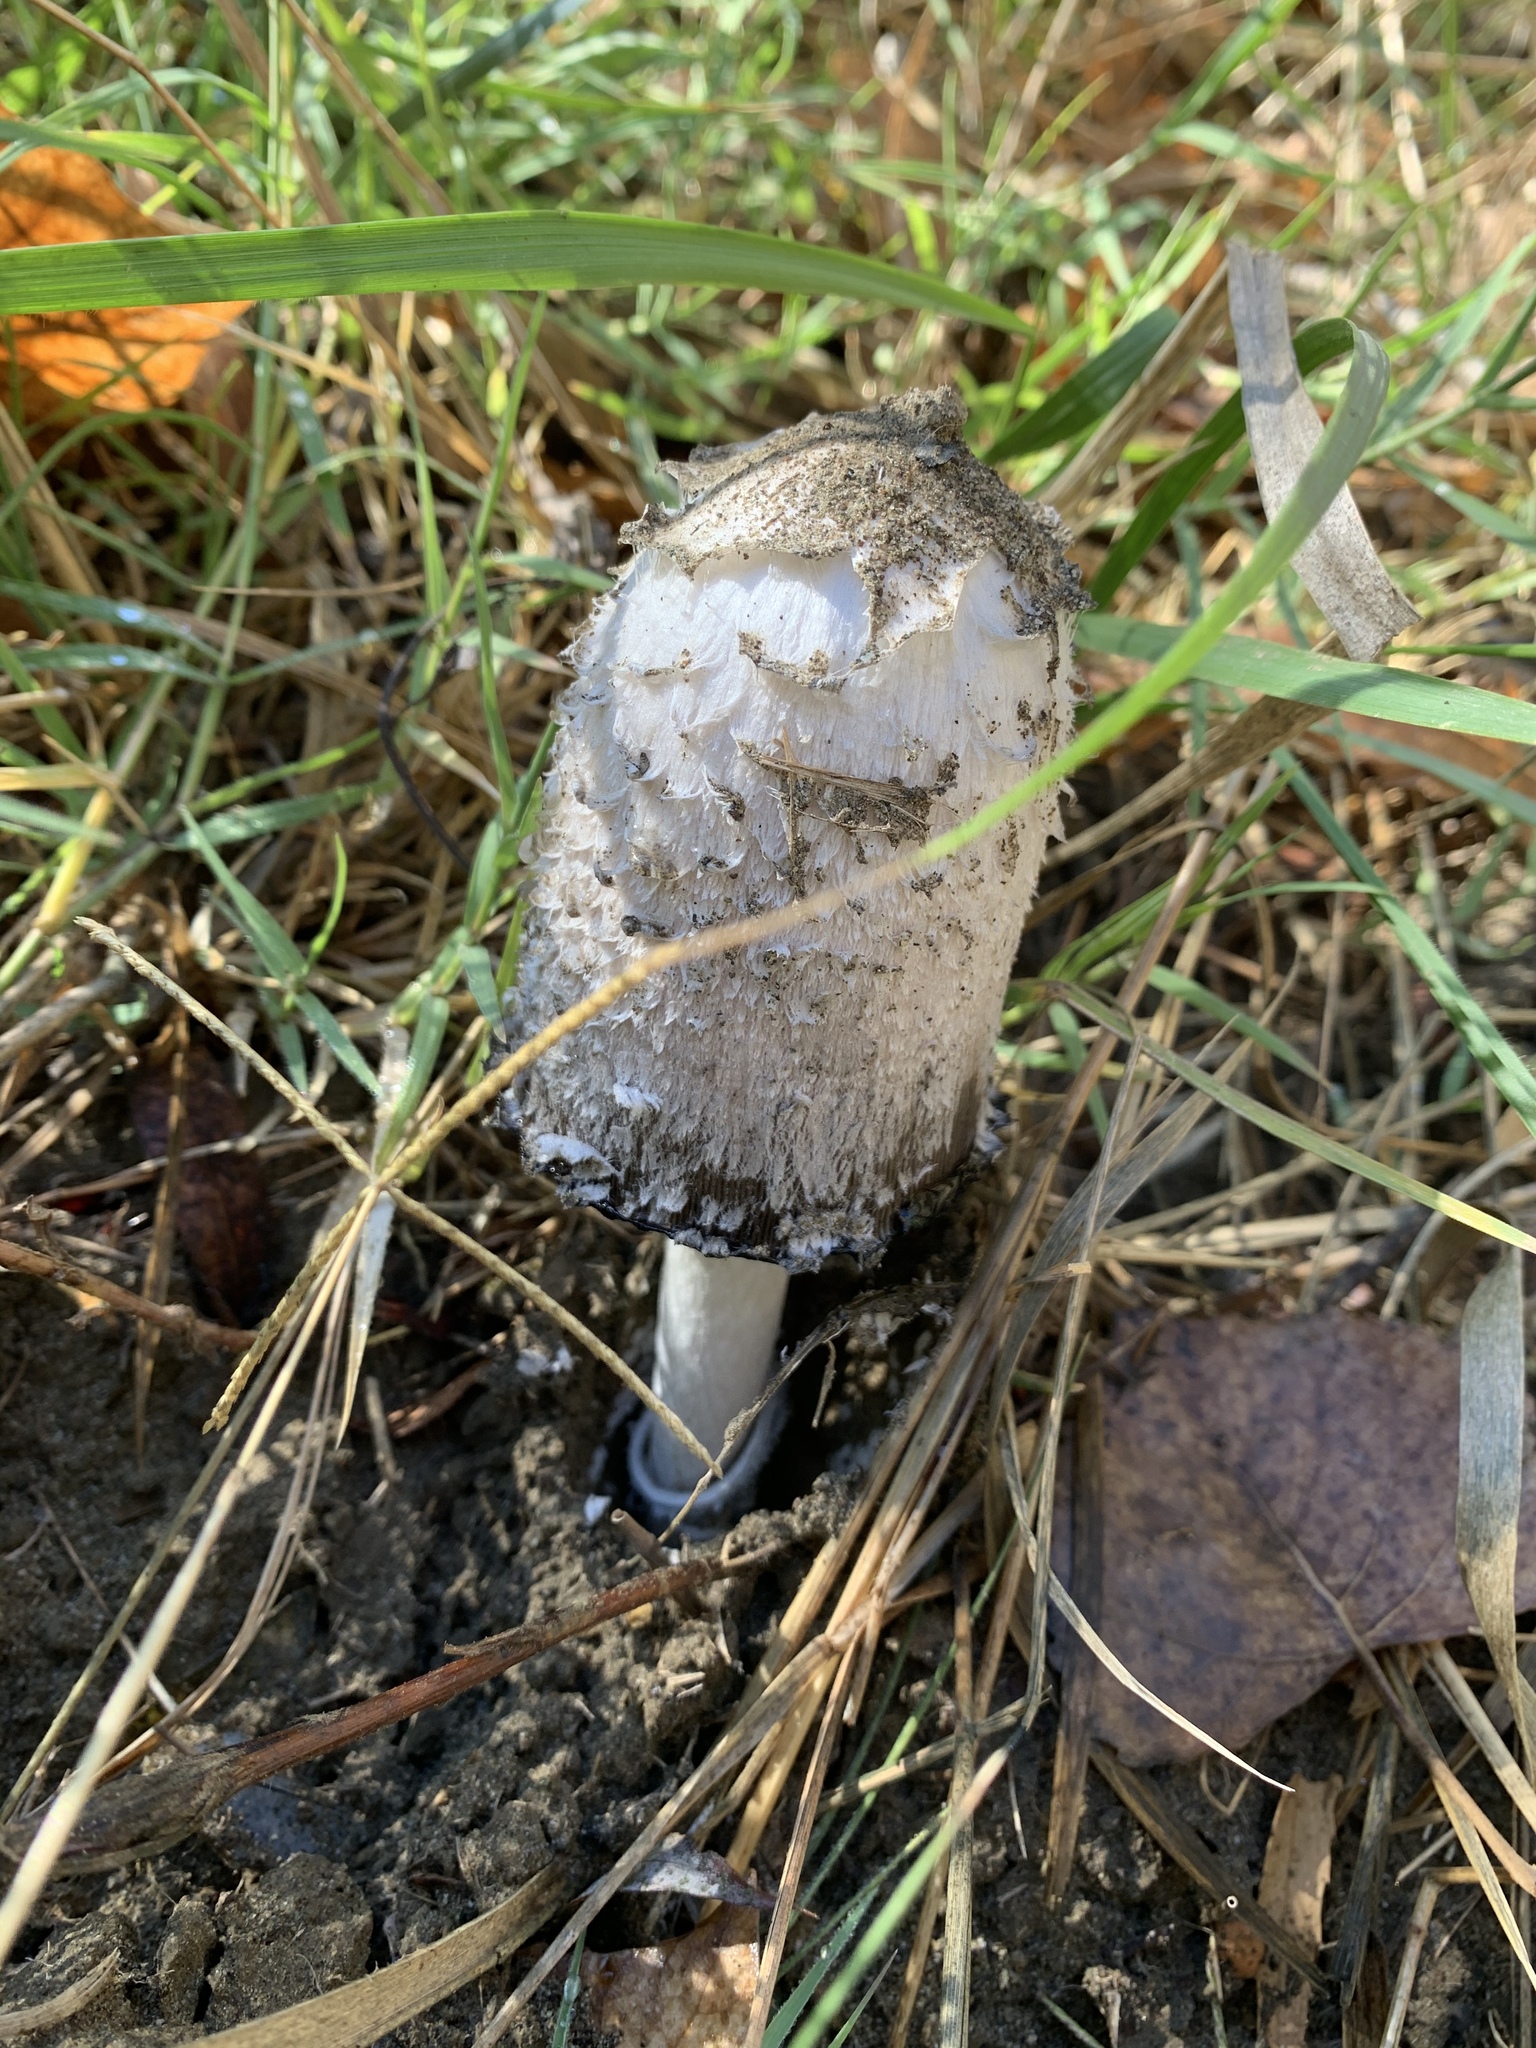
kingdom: Fungi
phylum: Basidiomycota
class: Agaricomycetes
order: Agaricales
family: Agaricaceae
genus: Coprinus
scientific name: Coprinus comatus
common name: Lawyer's wig
